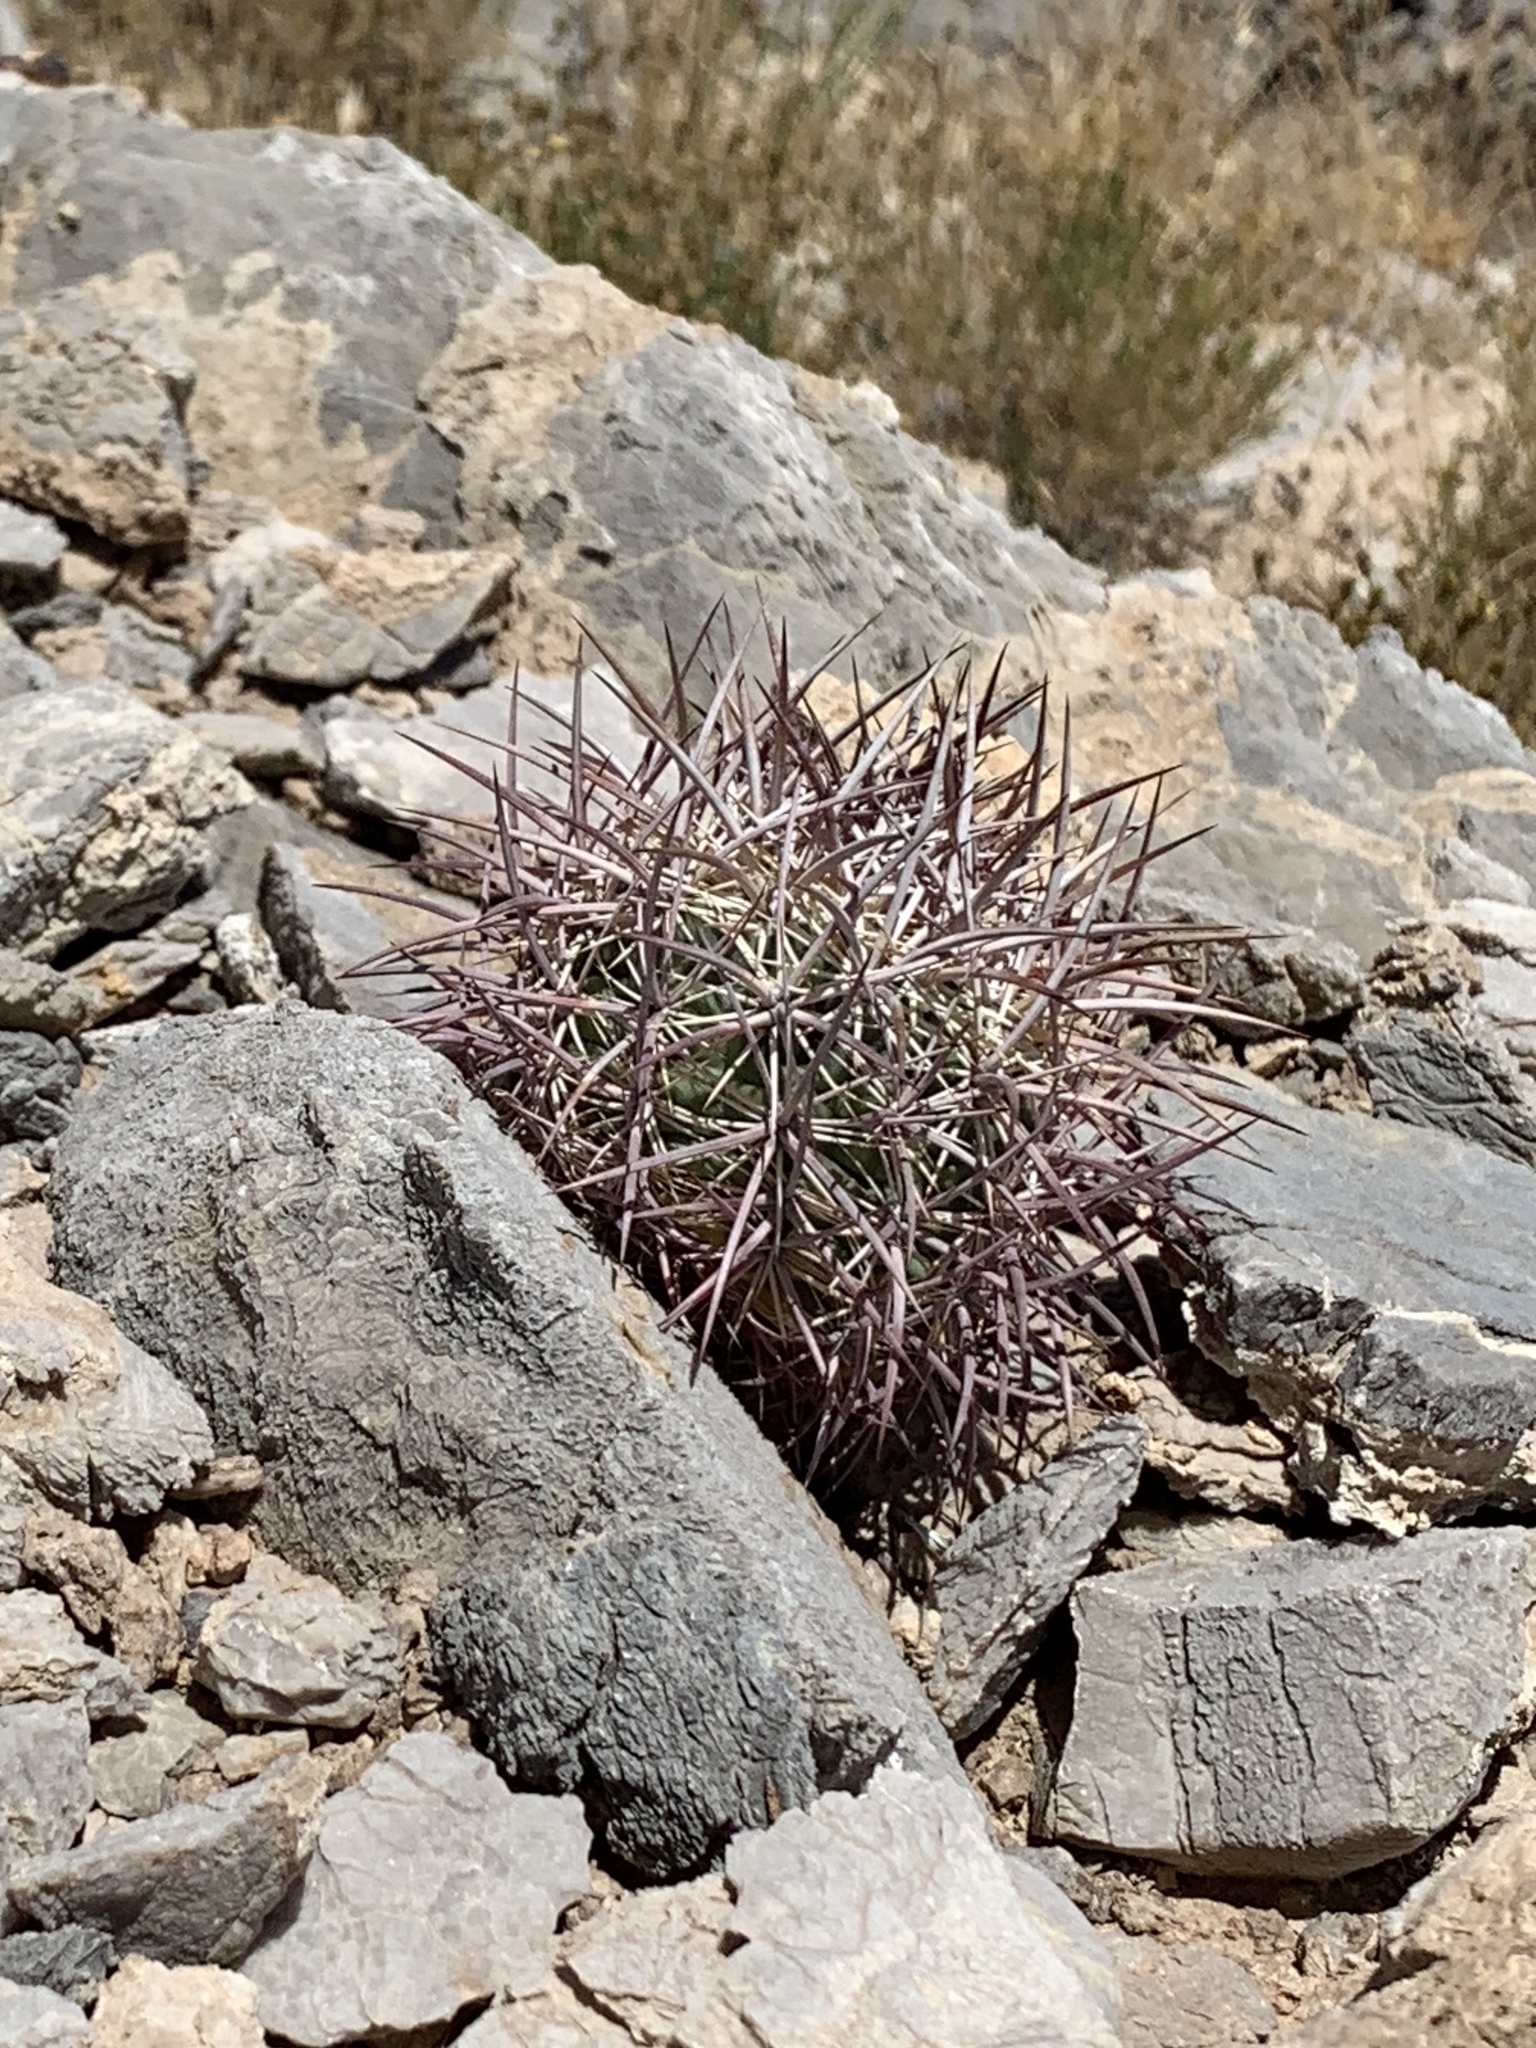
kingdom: Plantae
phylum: Tracheophyta
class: Magnoliopsida
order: Caryophyllales
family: Cactaceae
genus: Sclerocactus
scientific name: Sclerocactus johnsonii
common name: Eight-spine fishhook cactus
